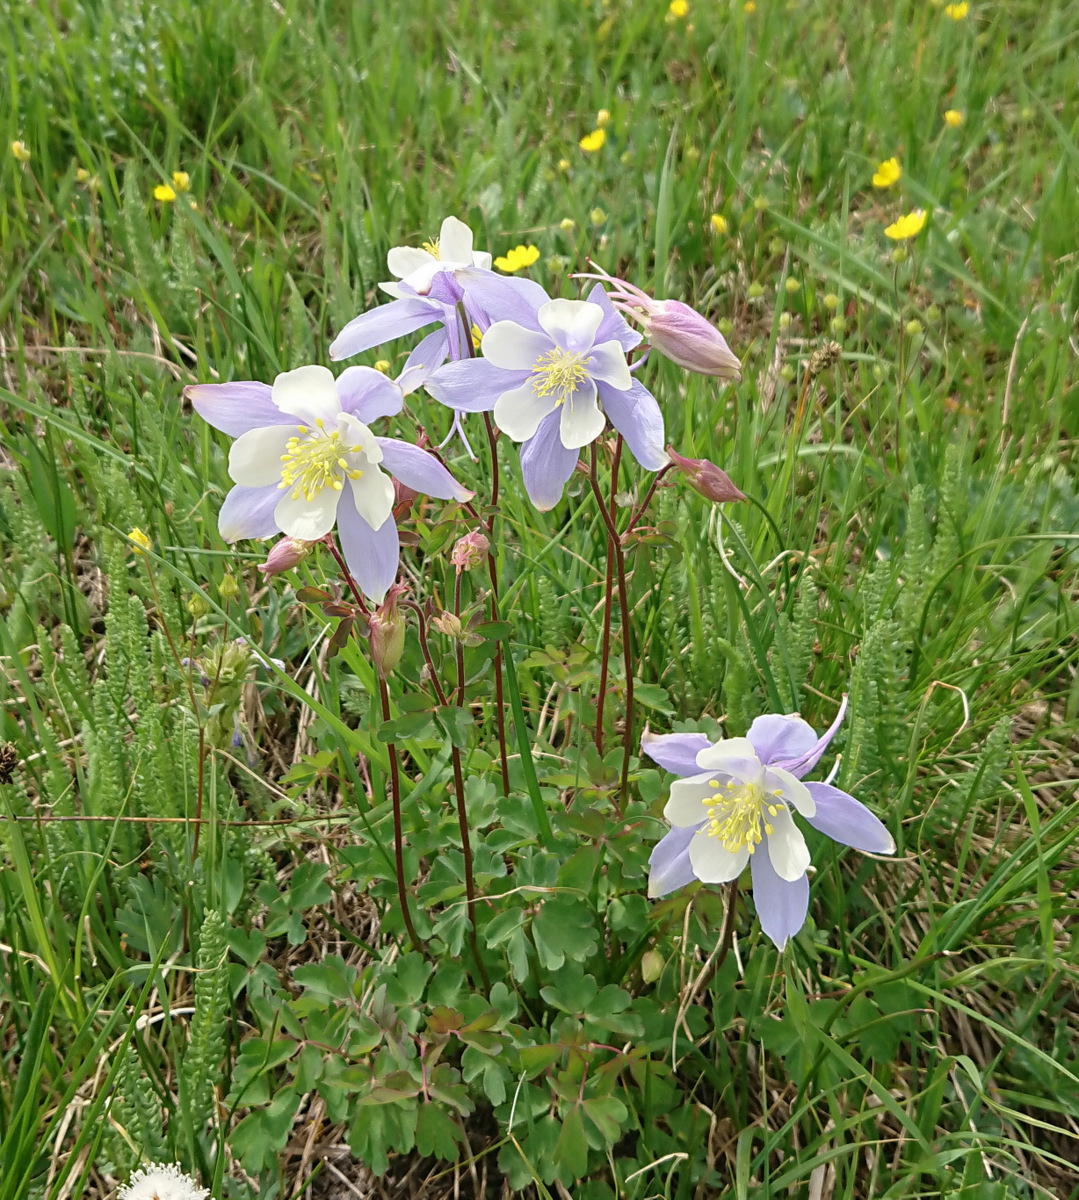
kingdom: Plantae
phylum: Tracheophyta
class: Magnoliopsida
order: Ranunculales
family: Ranunculaceae
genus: Aquilegia
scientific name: Aquilegia coerulea
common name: Rocky mountain columbine
